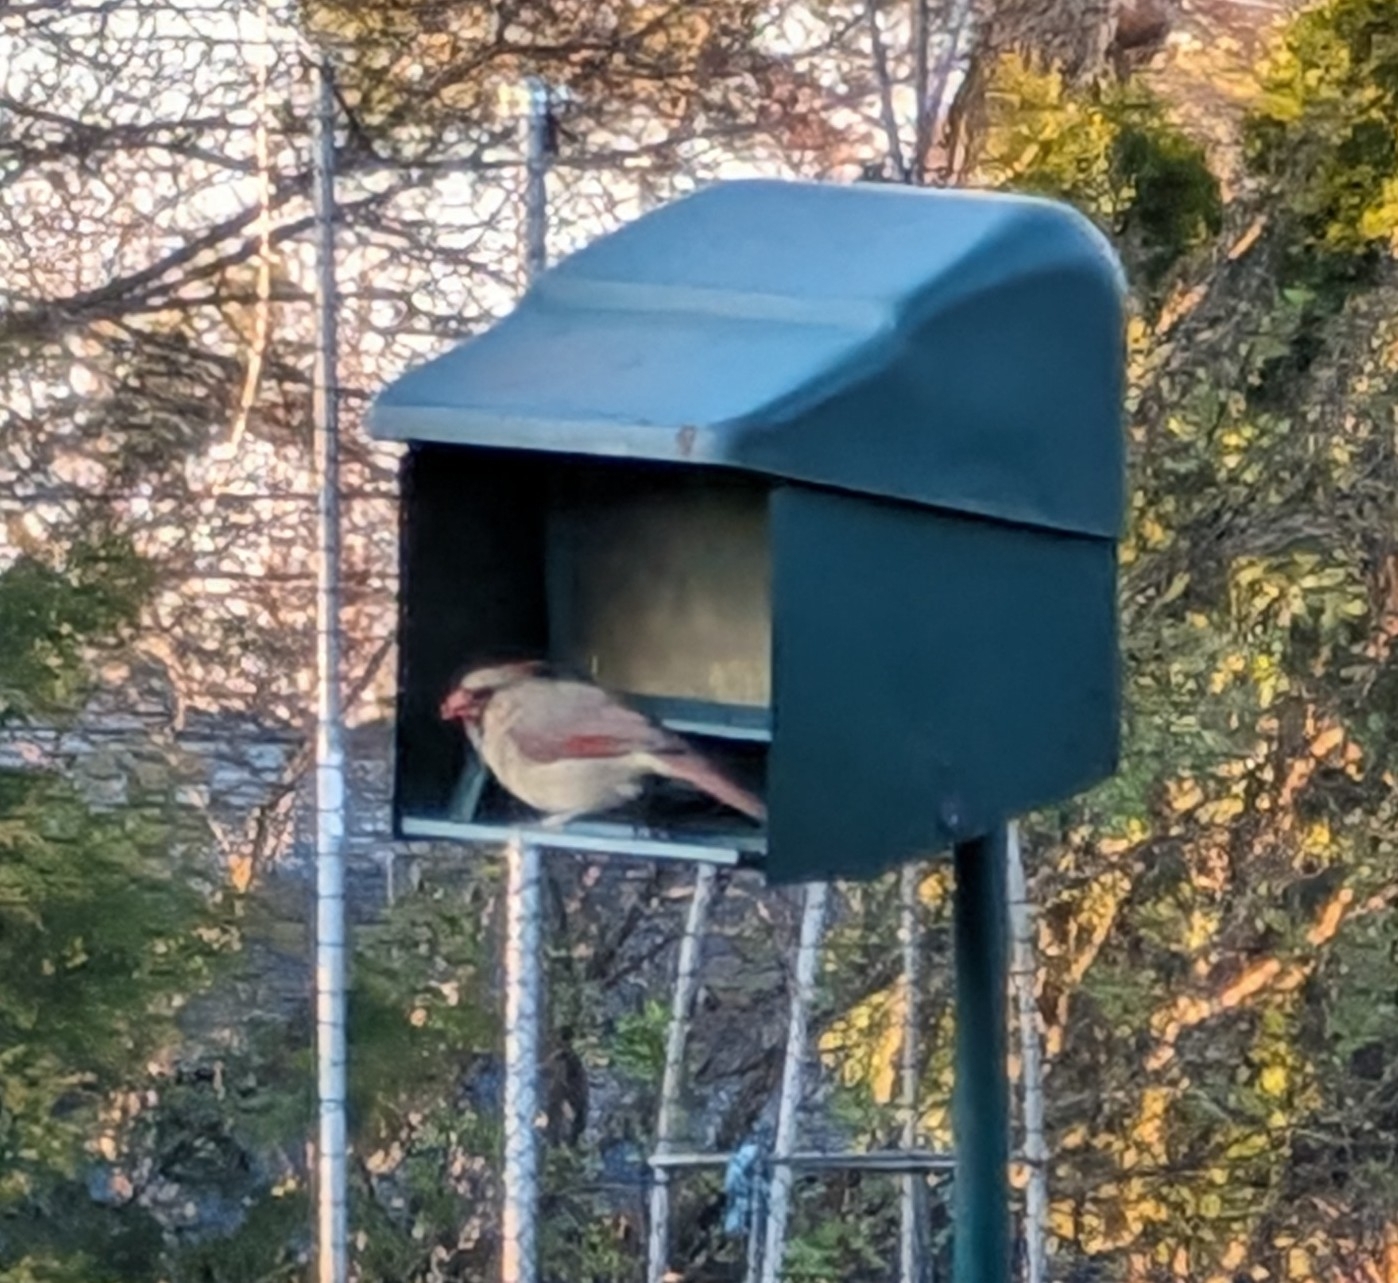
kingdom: Animalia
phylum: Chordata
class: Aves
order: Passeriformes
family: Cardinalidae
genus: Cardinalis
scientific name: Cardinalis cardinalis
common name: Northern cardinal
